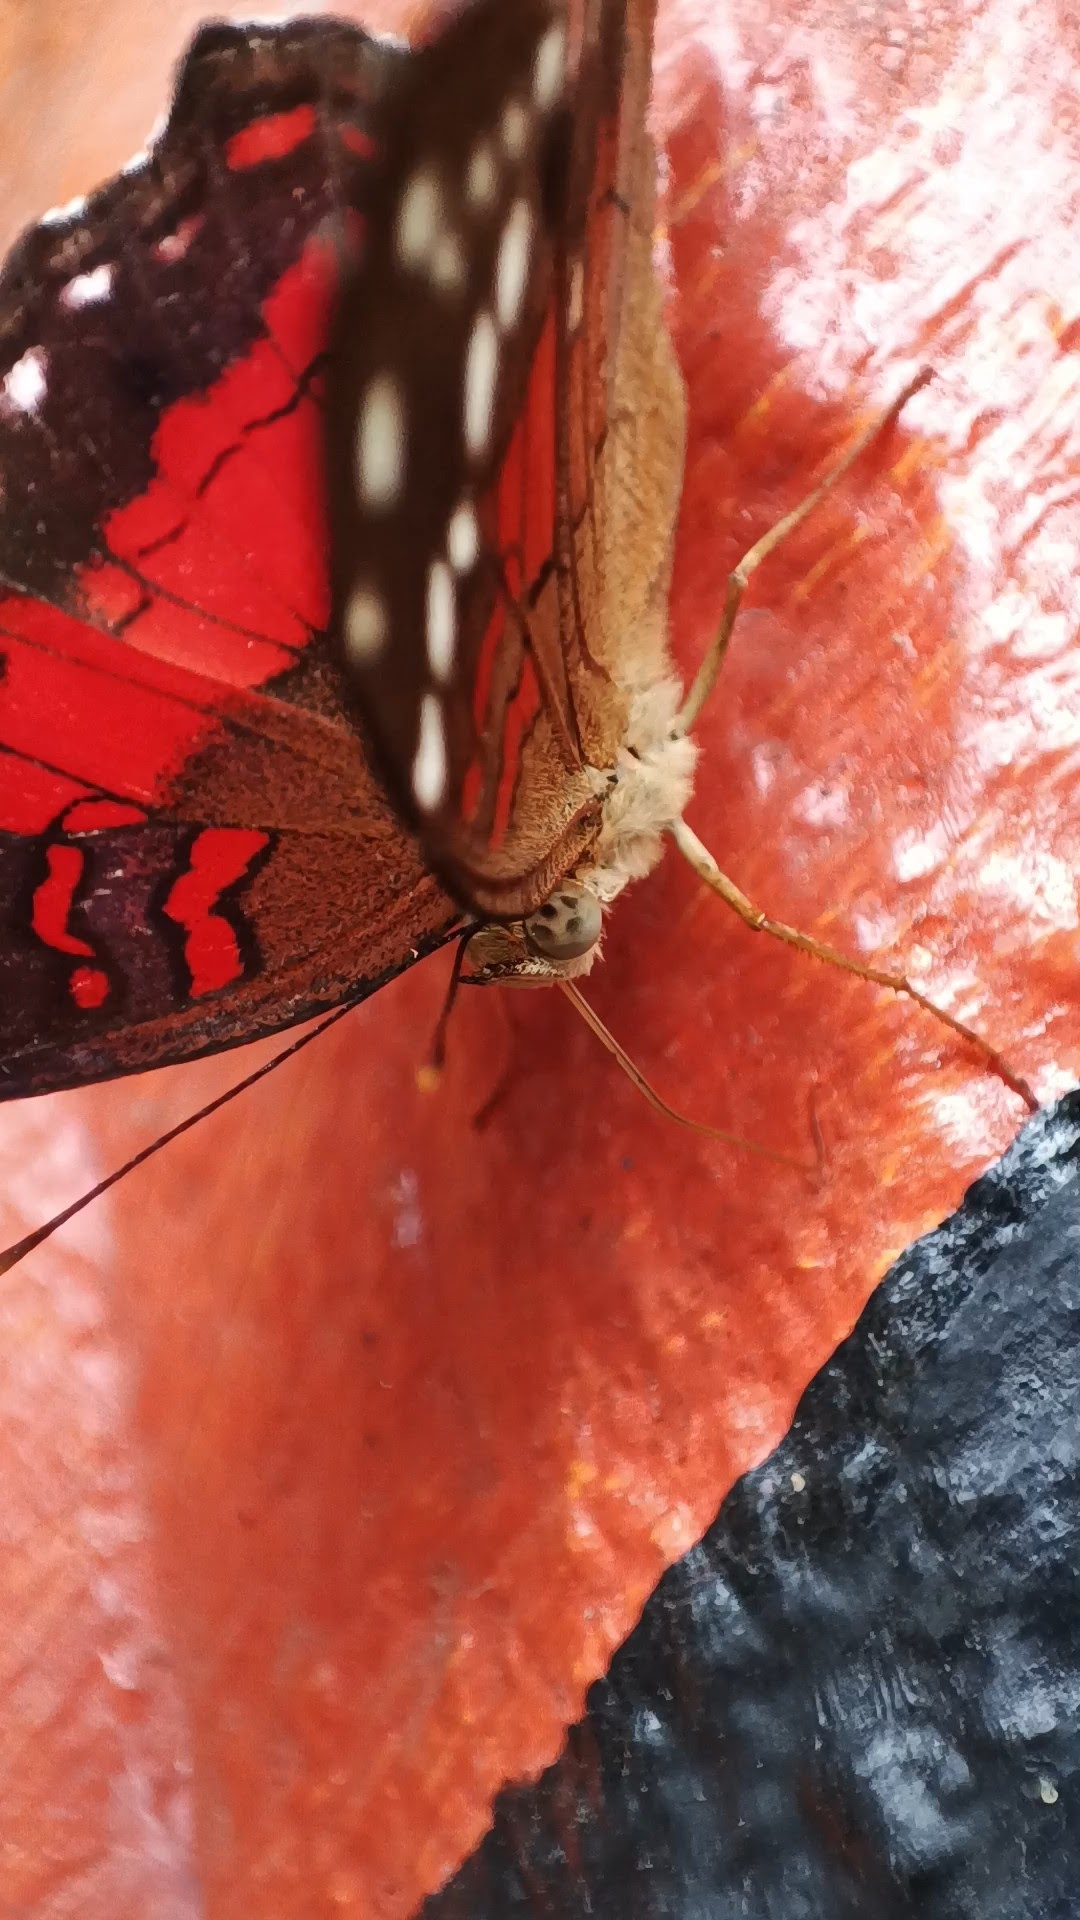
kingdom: Animalia
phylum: Arthropoda
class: Insecta
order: Lepidoptera
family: Nymphalidae
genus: Anartia
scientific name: Anartia amathea
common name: Red peacock
